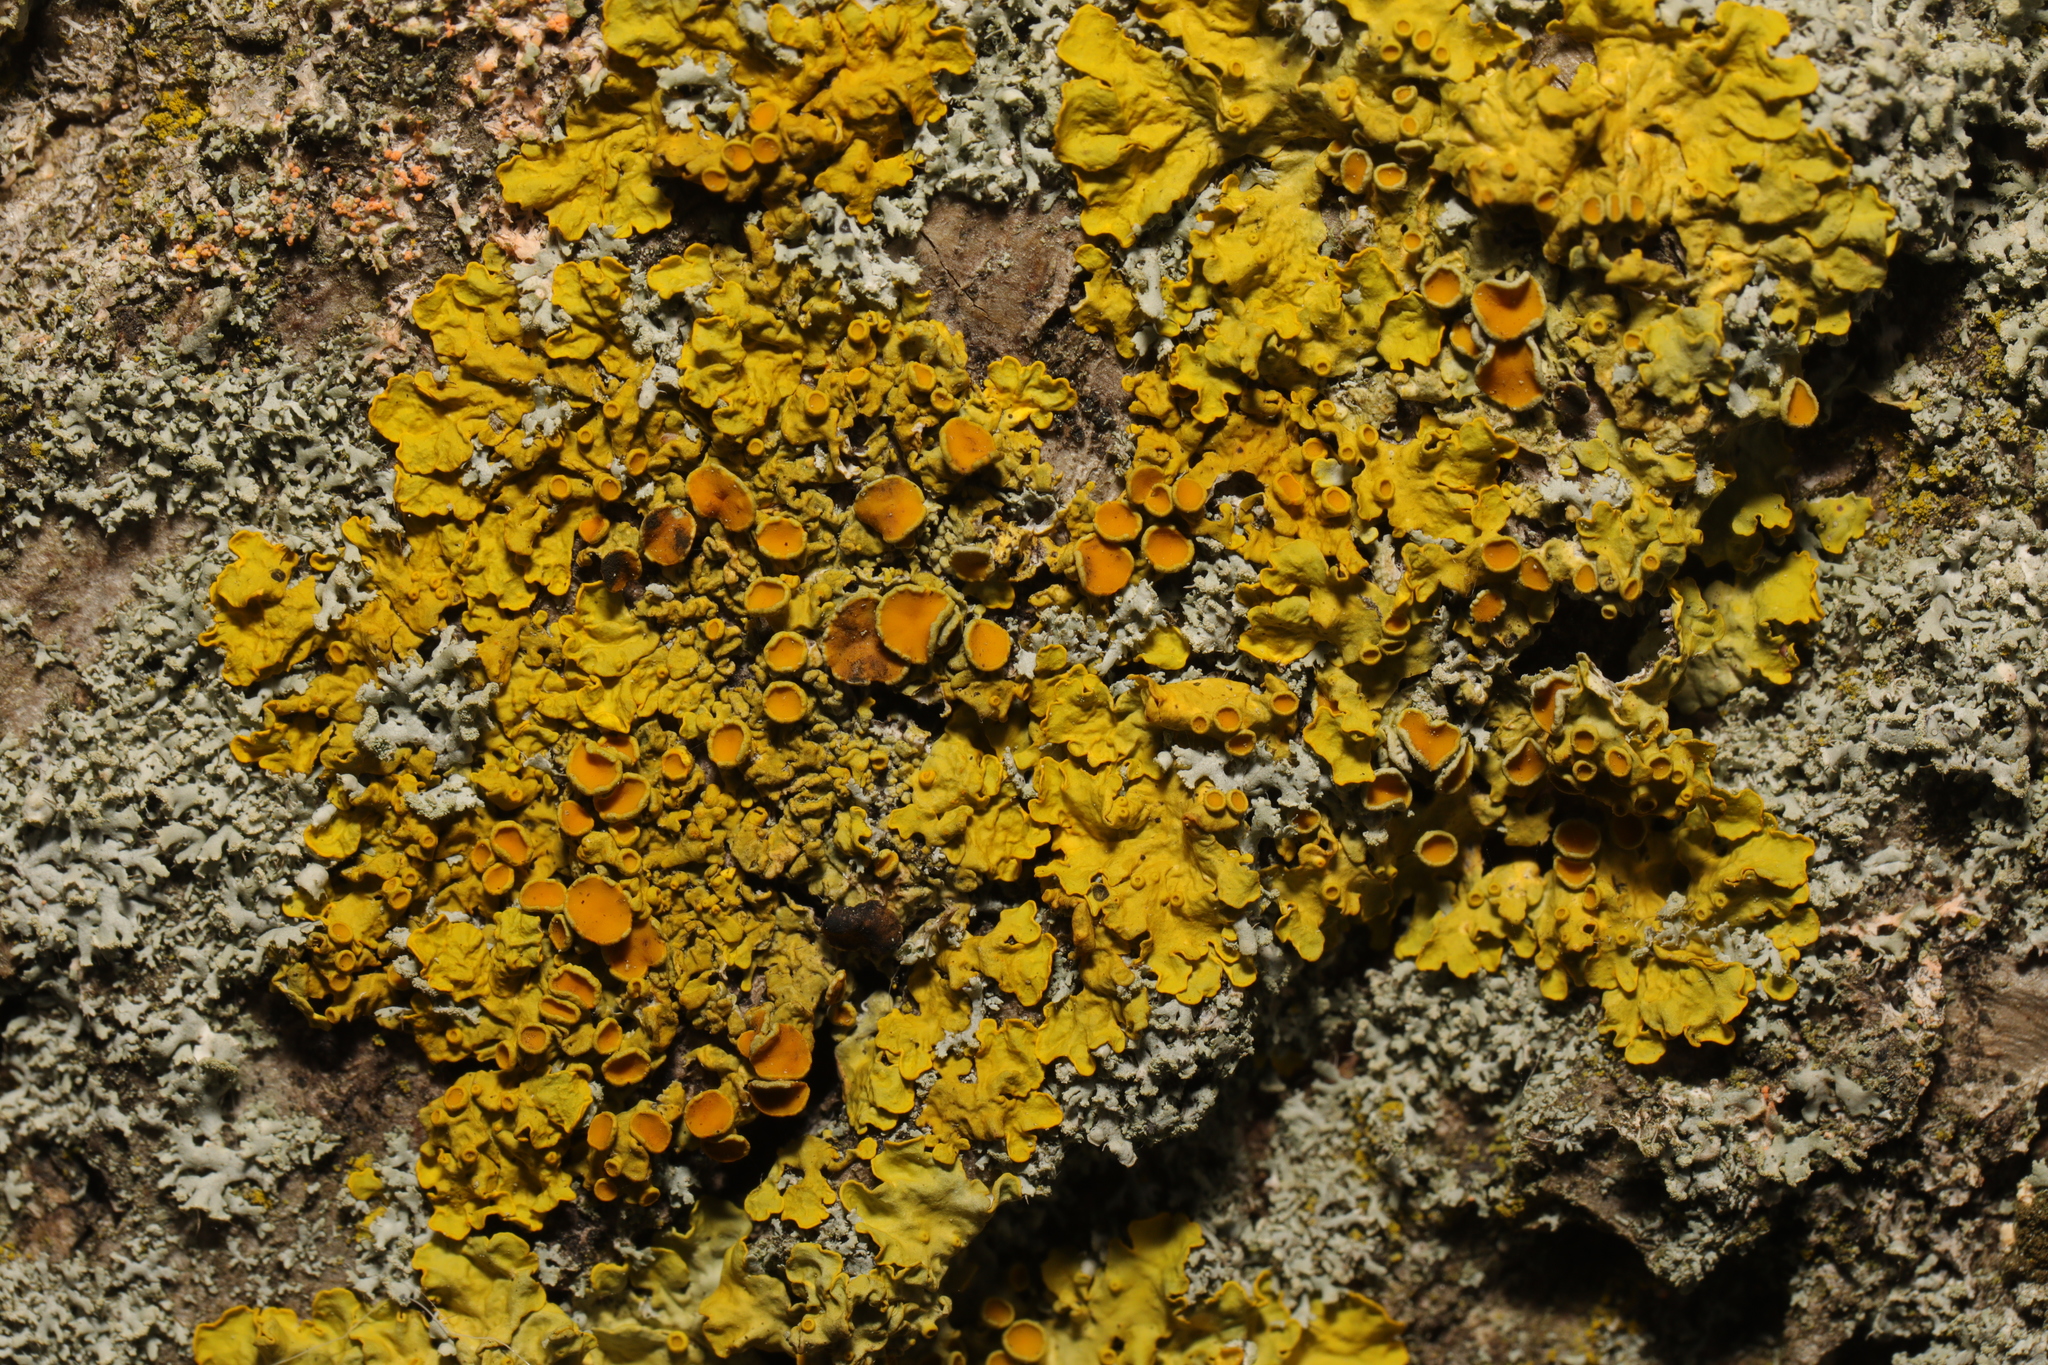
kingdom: Fungi
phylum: Ascomycota
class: Lecanoromycetes
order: Teloschistales
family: Teloschistaceae
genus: Xanthoria
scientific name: Xanthoria parietina
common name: Common orange lichen
